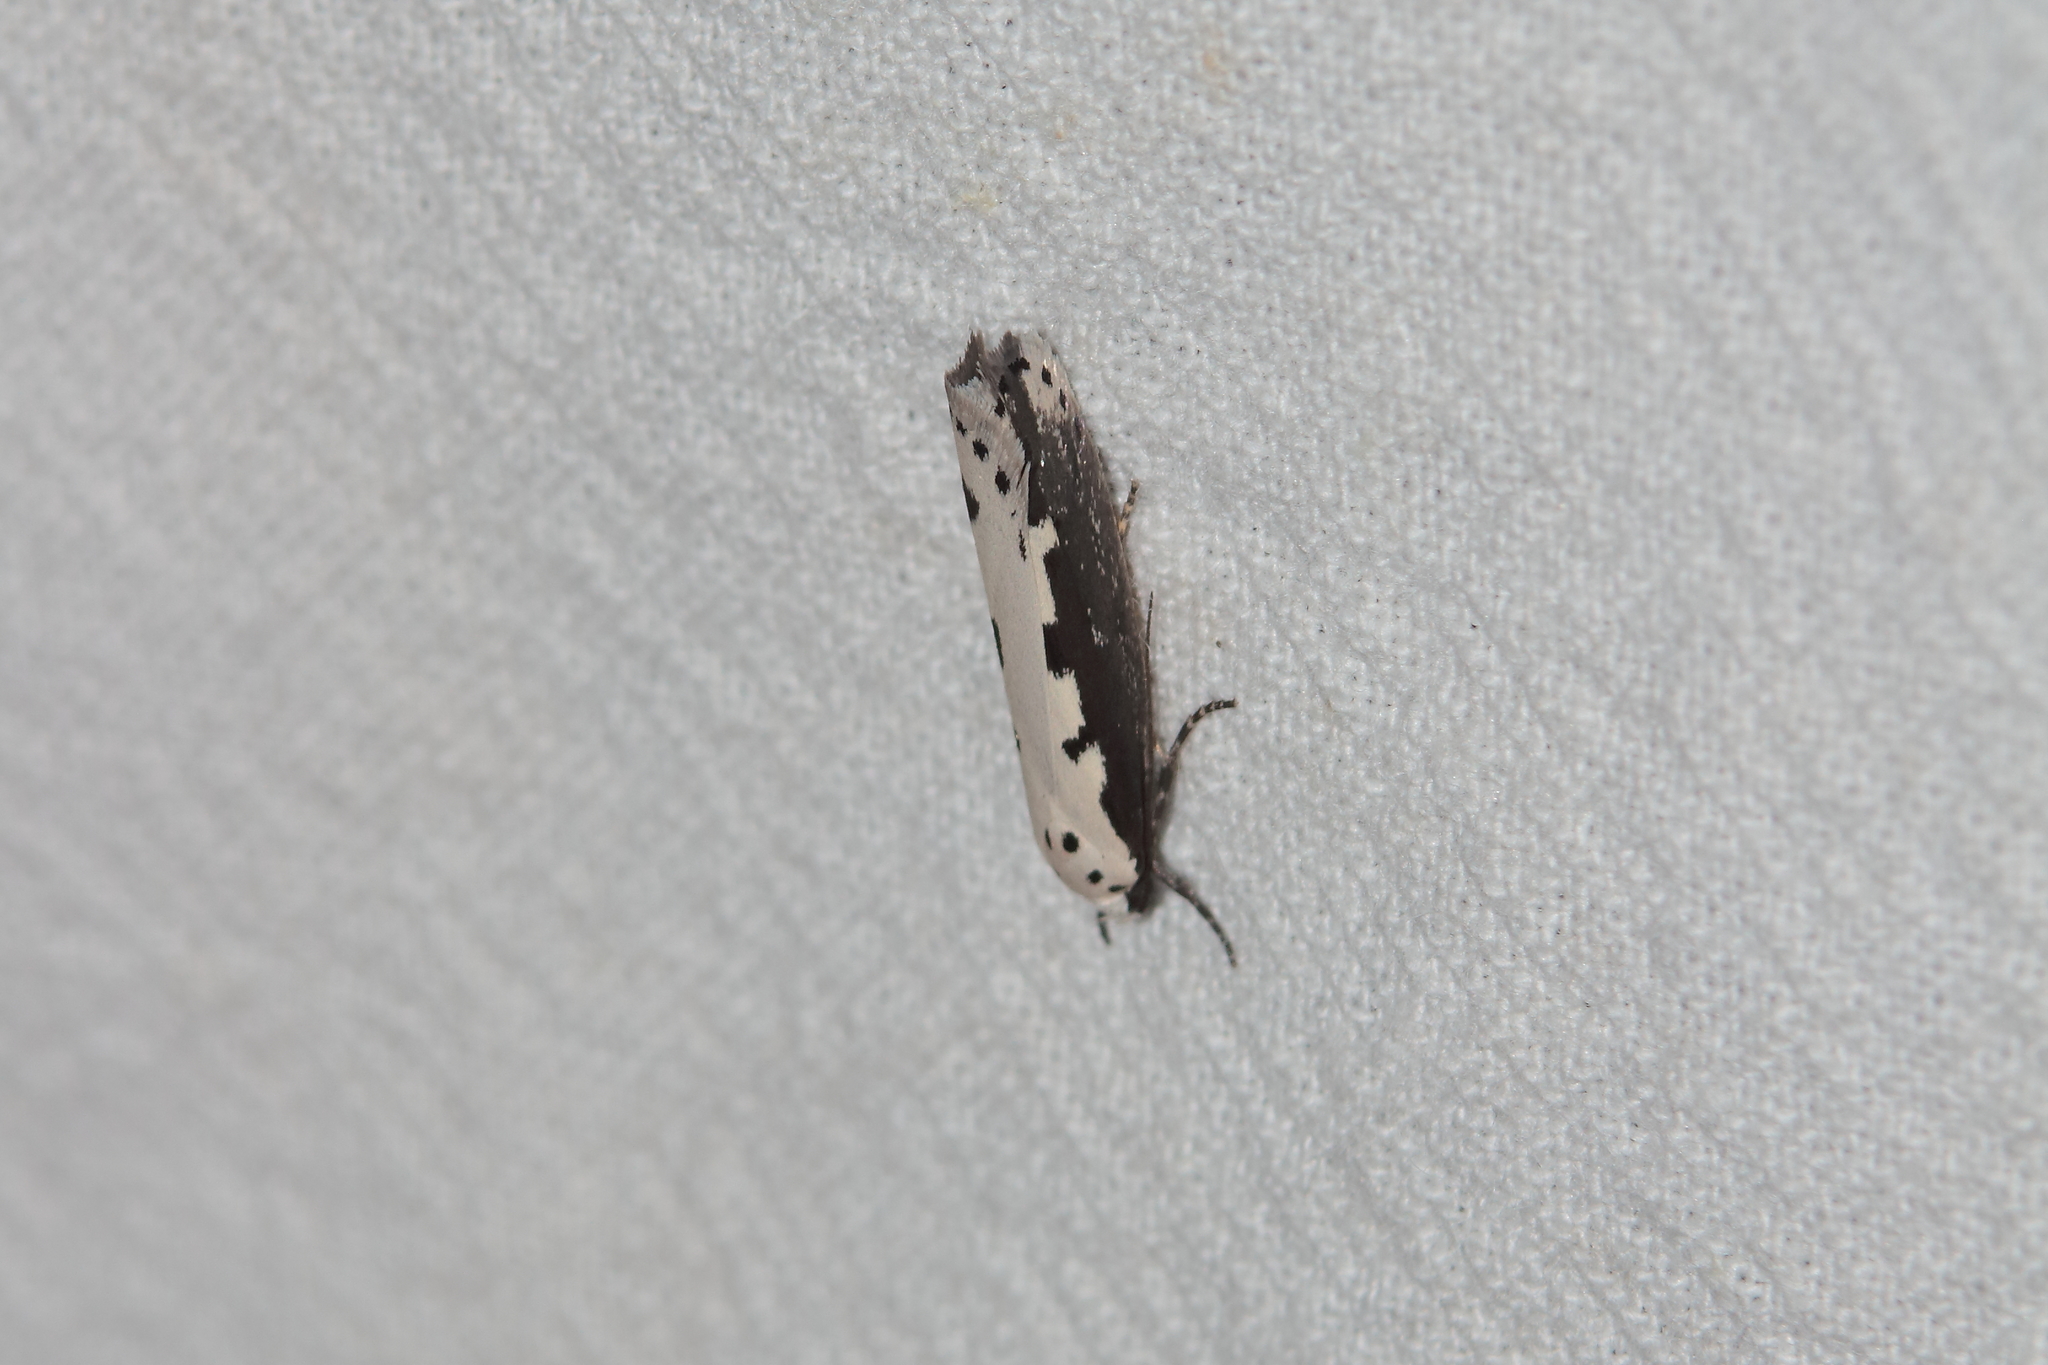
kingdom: Animalia
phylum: Arthropoda
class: Insecta
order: Lepidoptera
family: Ethmiidae
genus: Ethmia
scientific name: Ethmia bipunctella
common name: Bordered ermel
